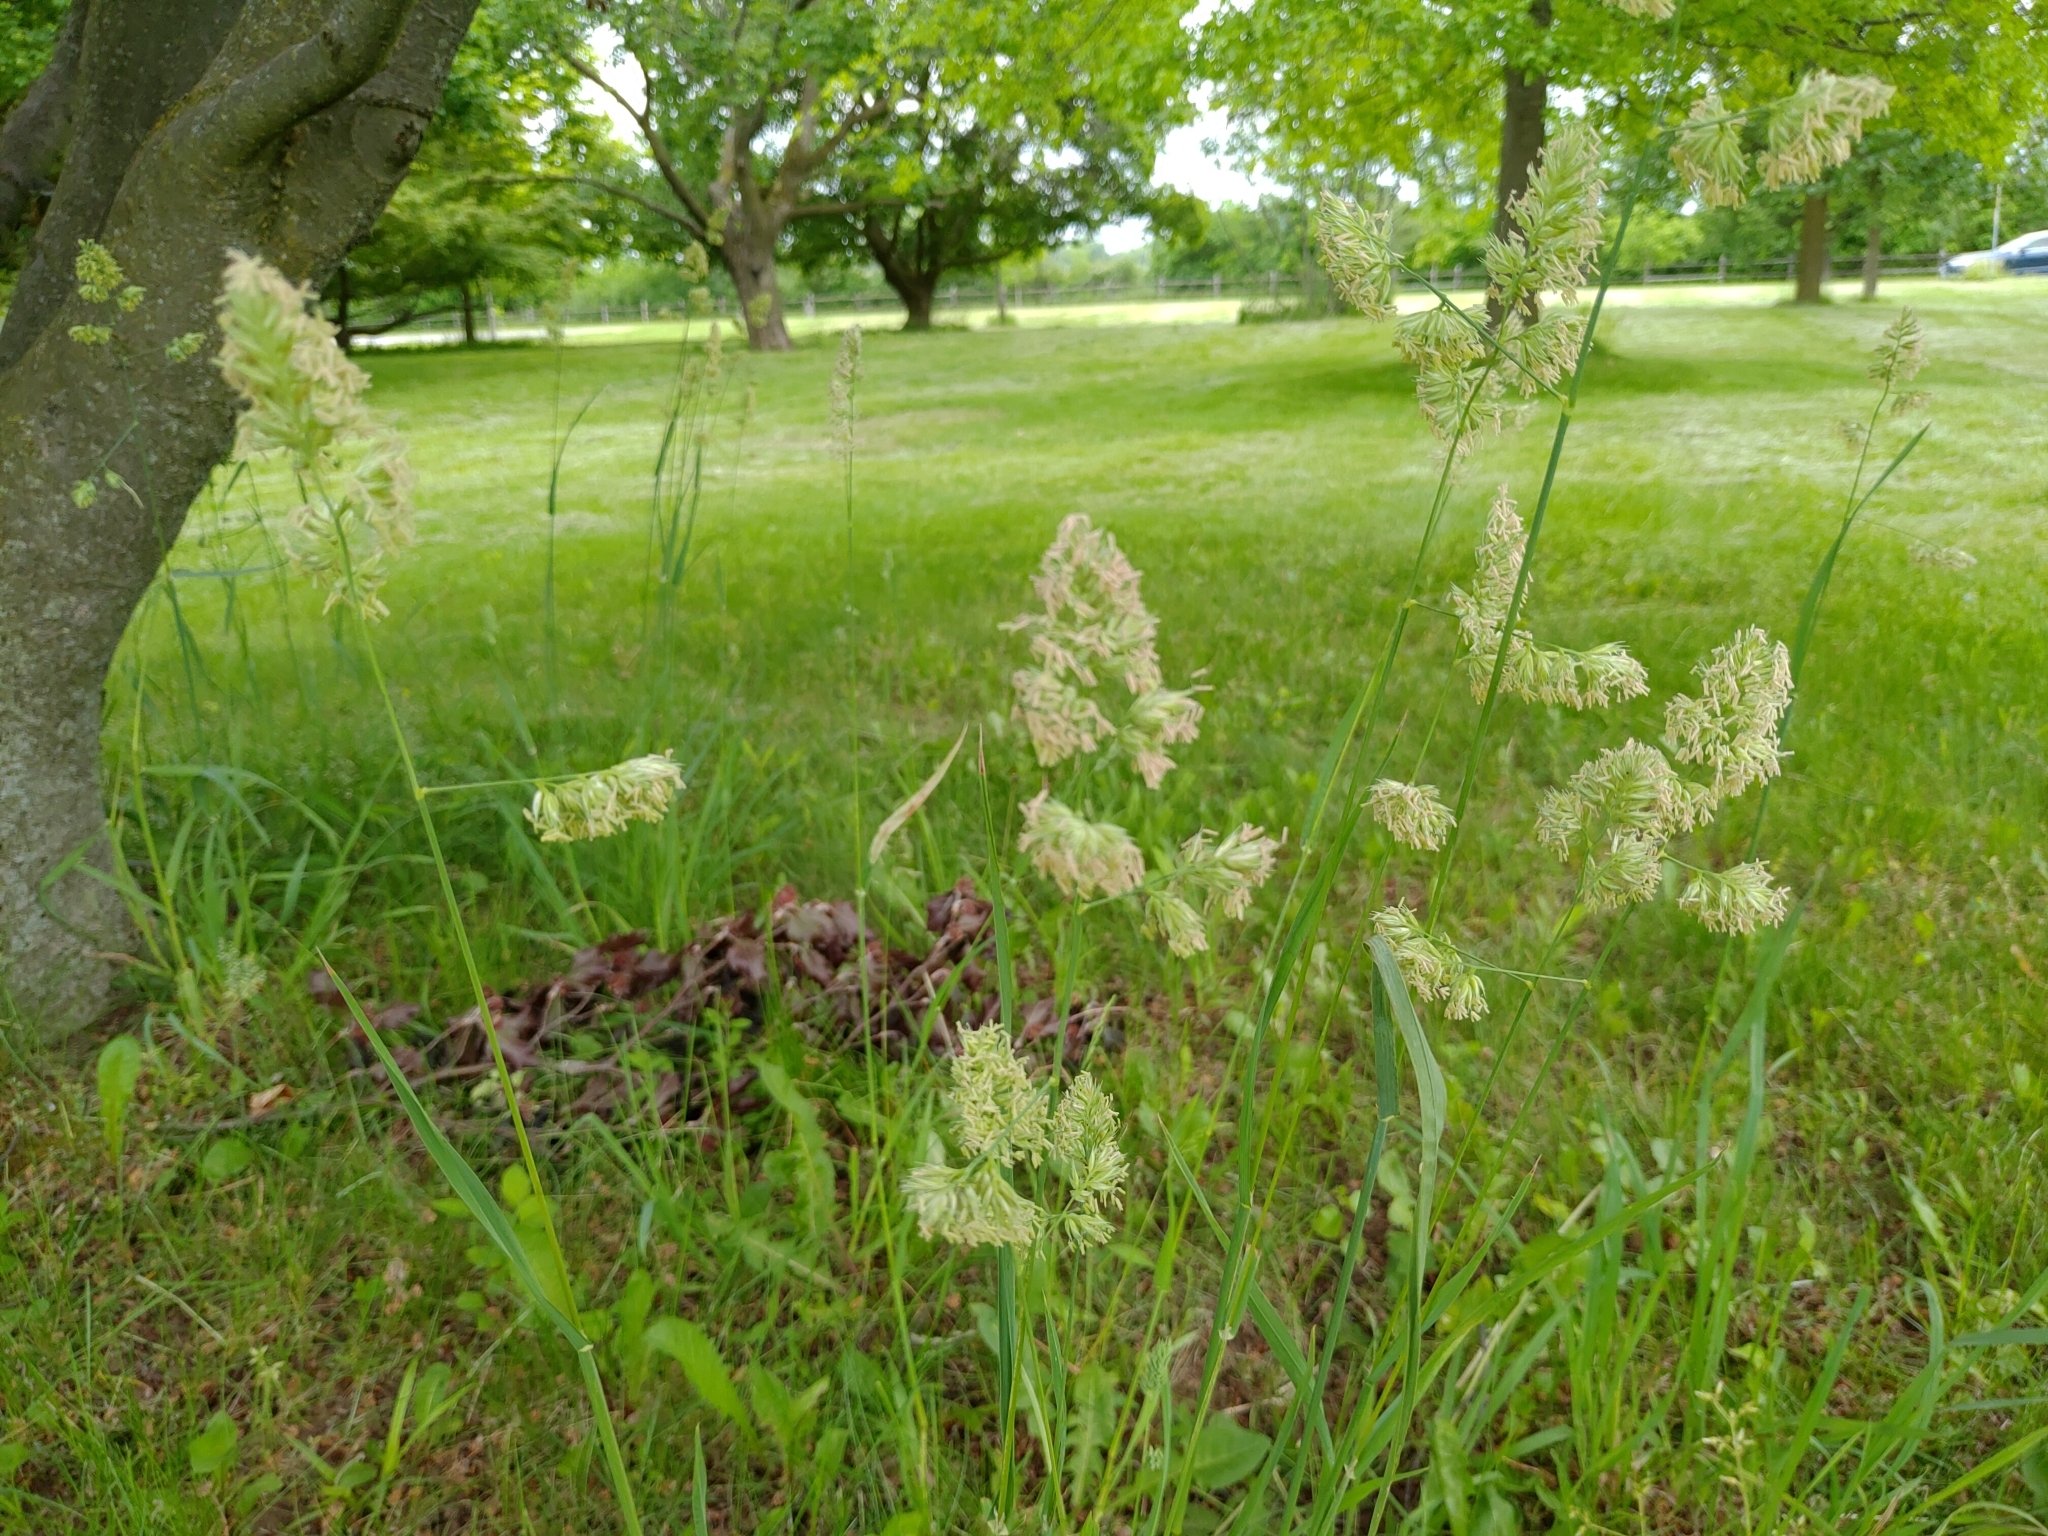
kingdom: Plantae
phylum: Tracheophyta
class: Liliopsida
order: Poales
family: Poaceae
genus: Dactylis
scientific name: Dactylis glomerata
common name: Orchardgrass
